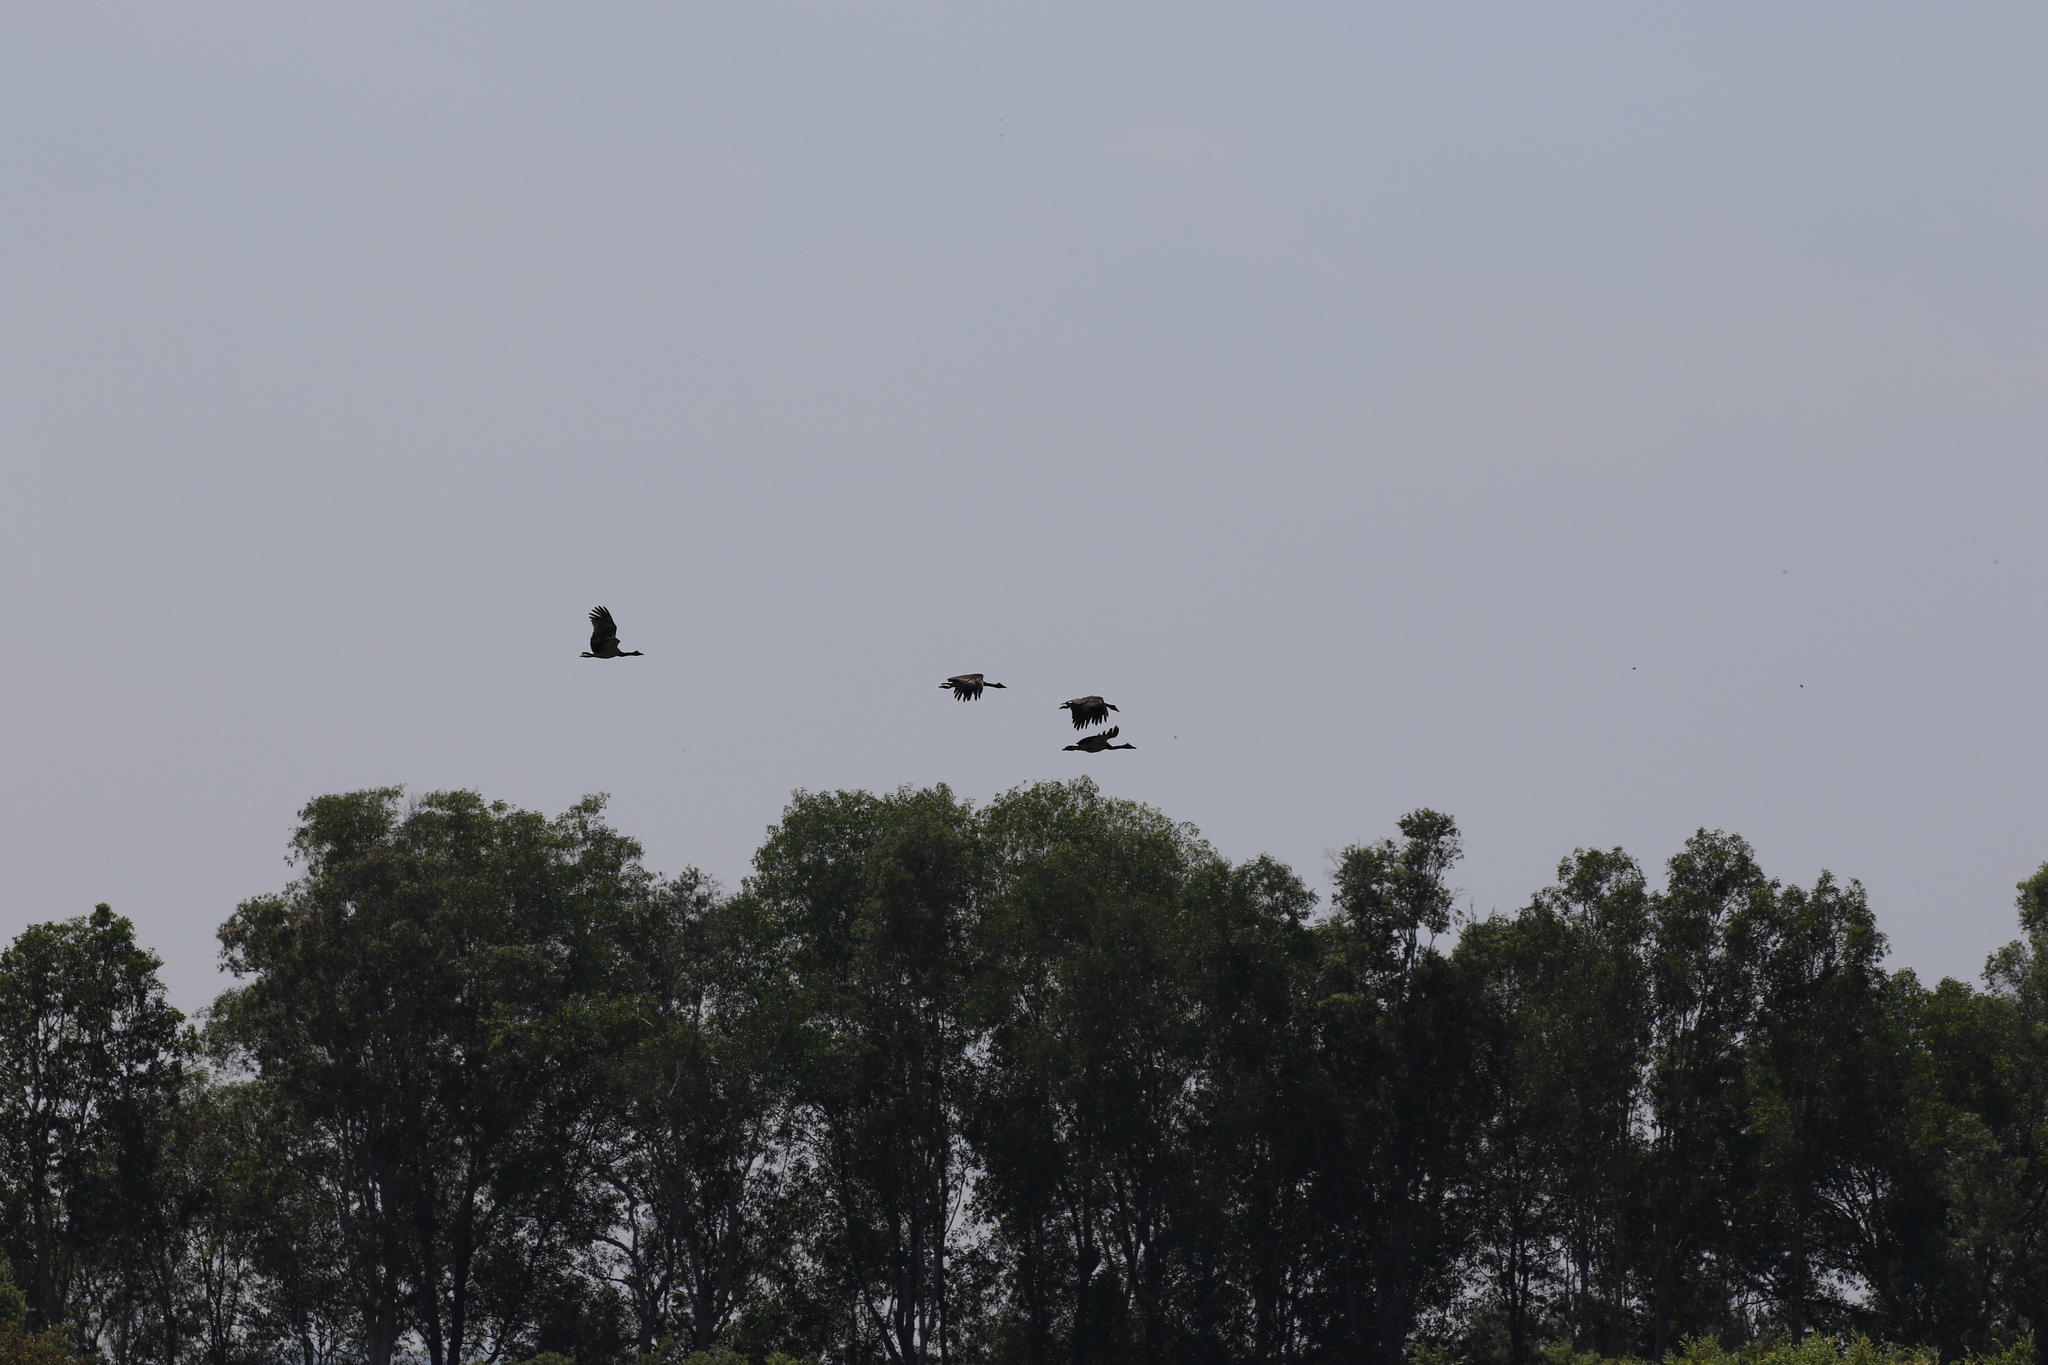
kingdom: Animalia
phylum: Chordata
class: Aves
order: Anseriformes
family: Anseranatidae
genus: Anseranas
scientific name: Anseranas semipalmata
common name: Magpie goose
